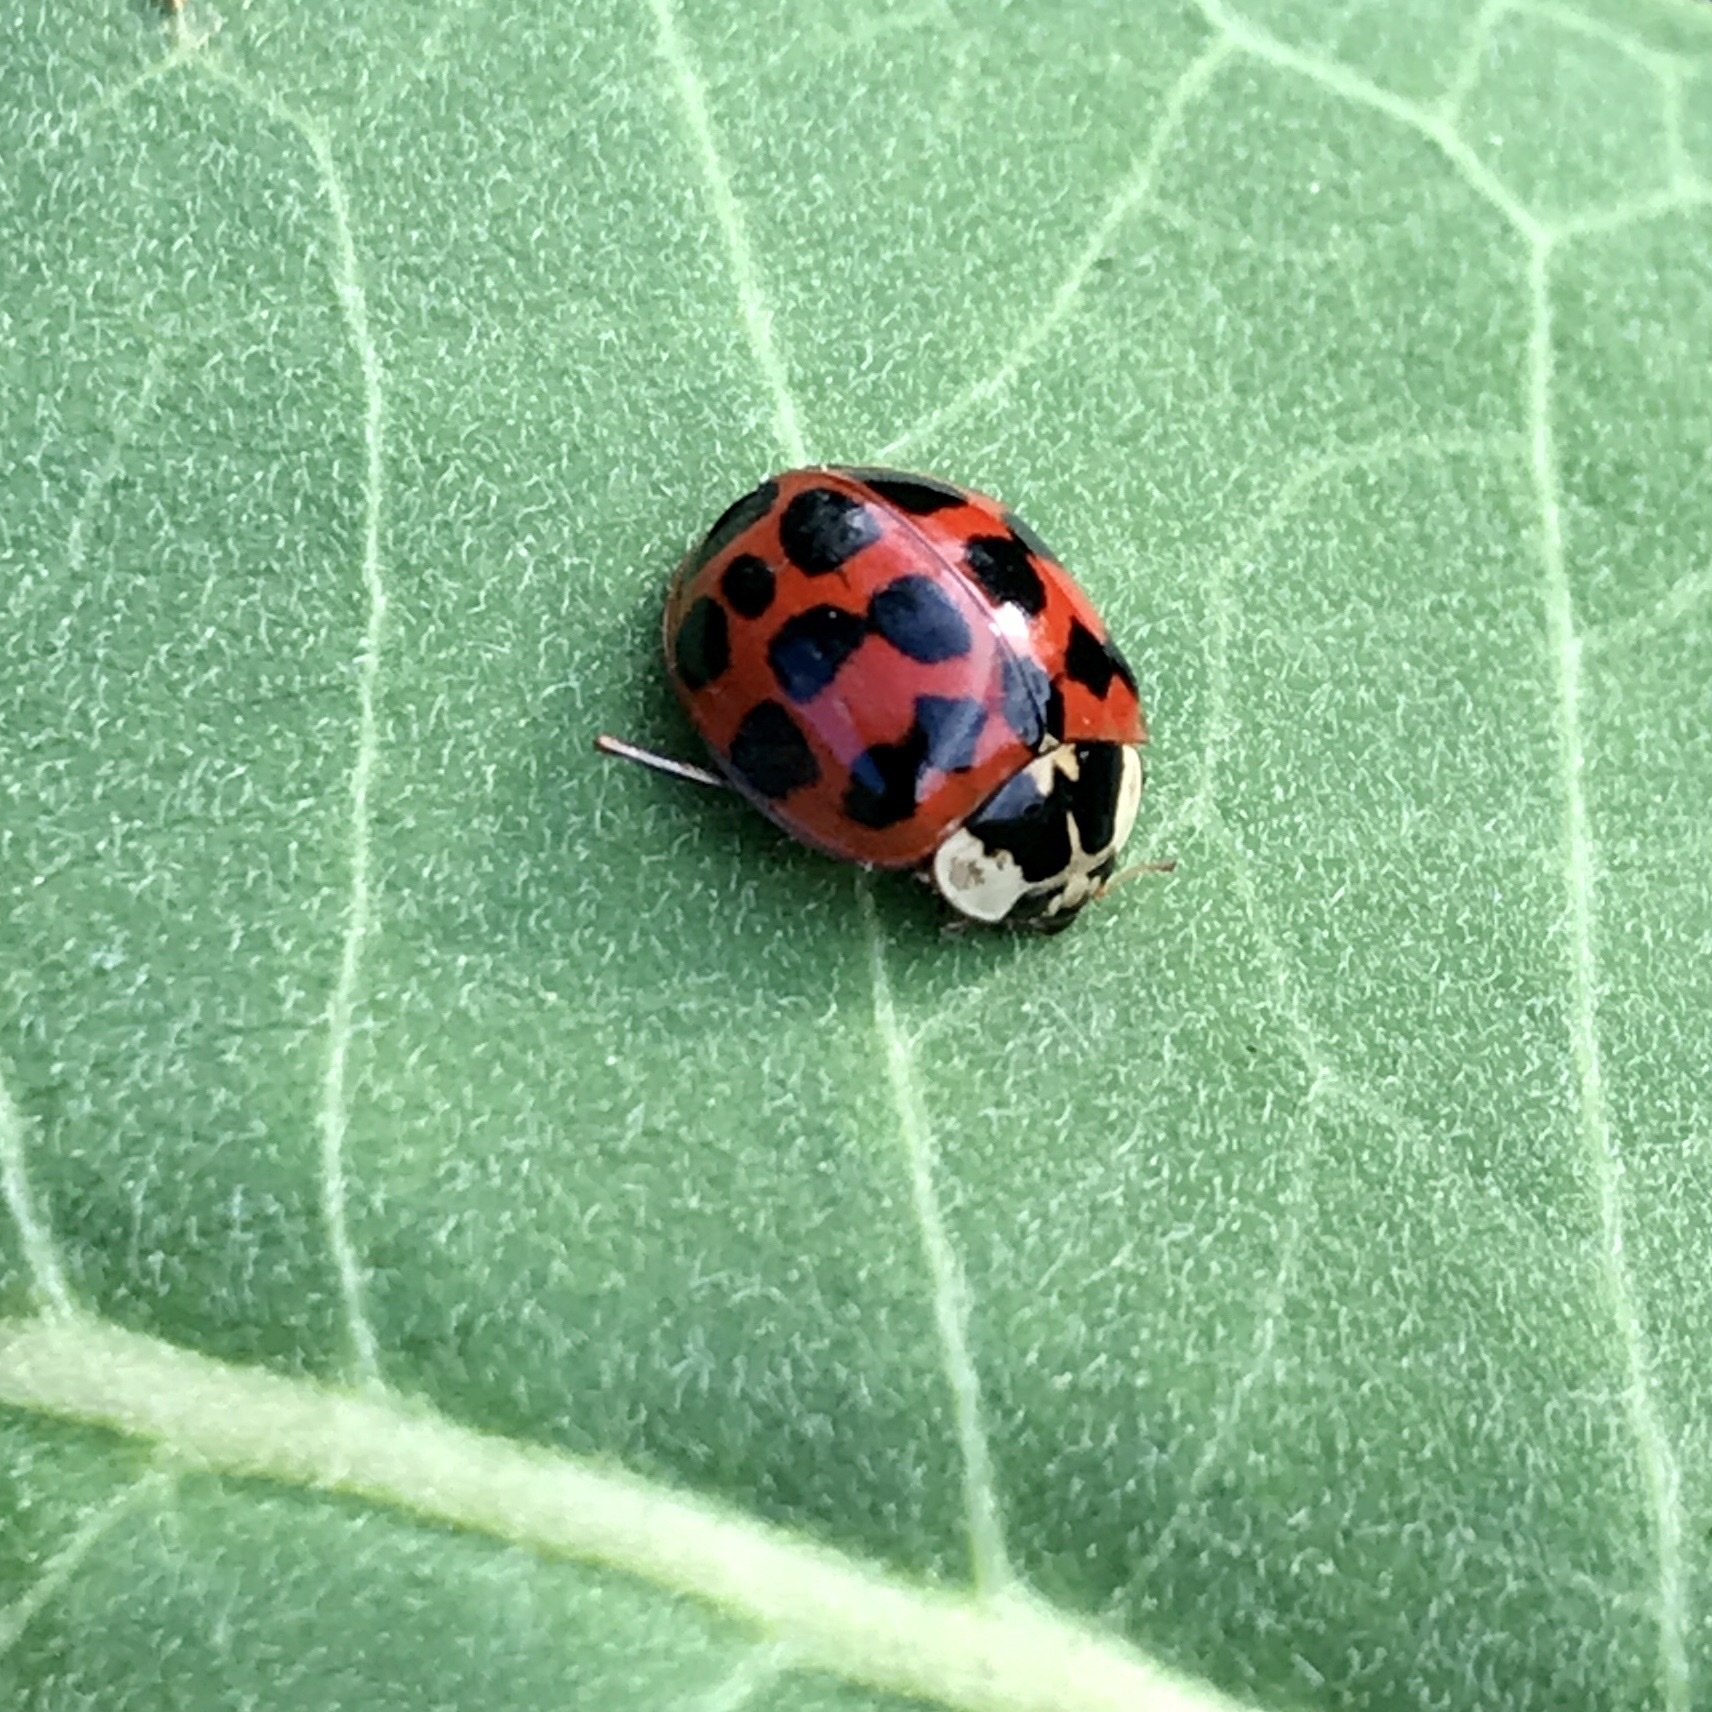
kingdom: Animalia
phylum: Arthropoda
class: Insecta
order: Coleoptera
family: Coccinellidae
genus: Harmonia
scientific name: Harmonia axyridis
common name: Harlequin ladybird
